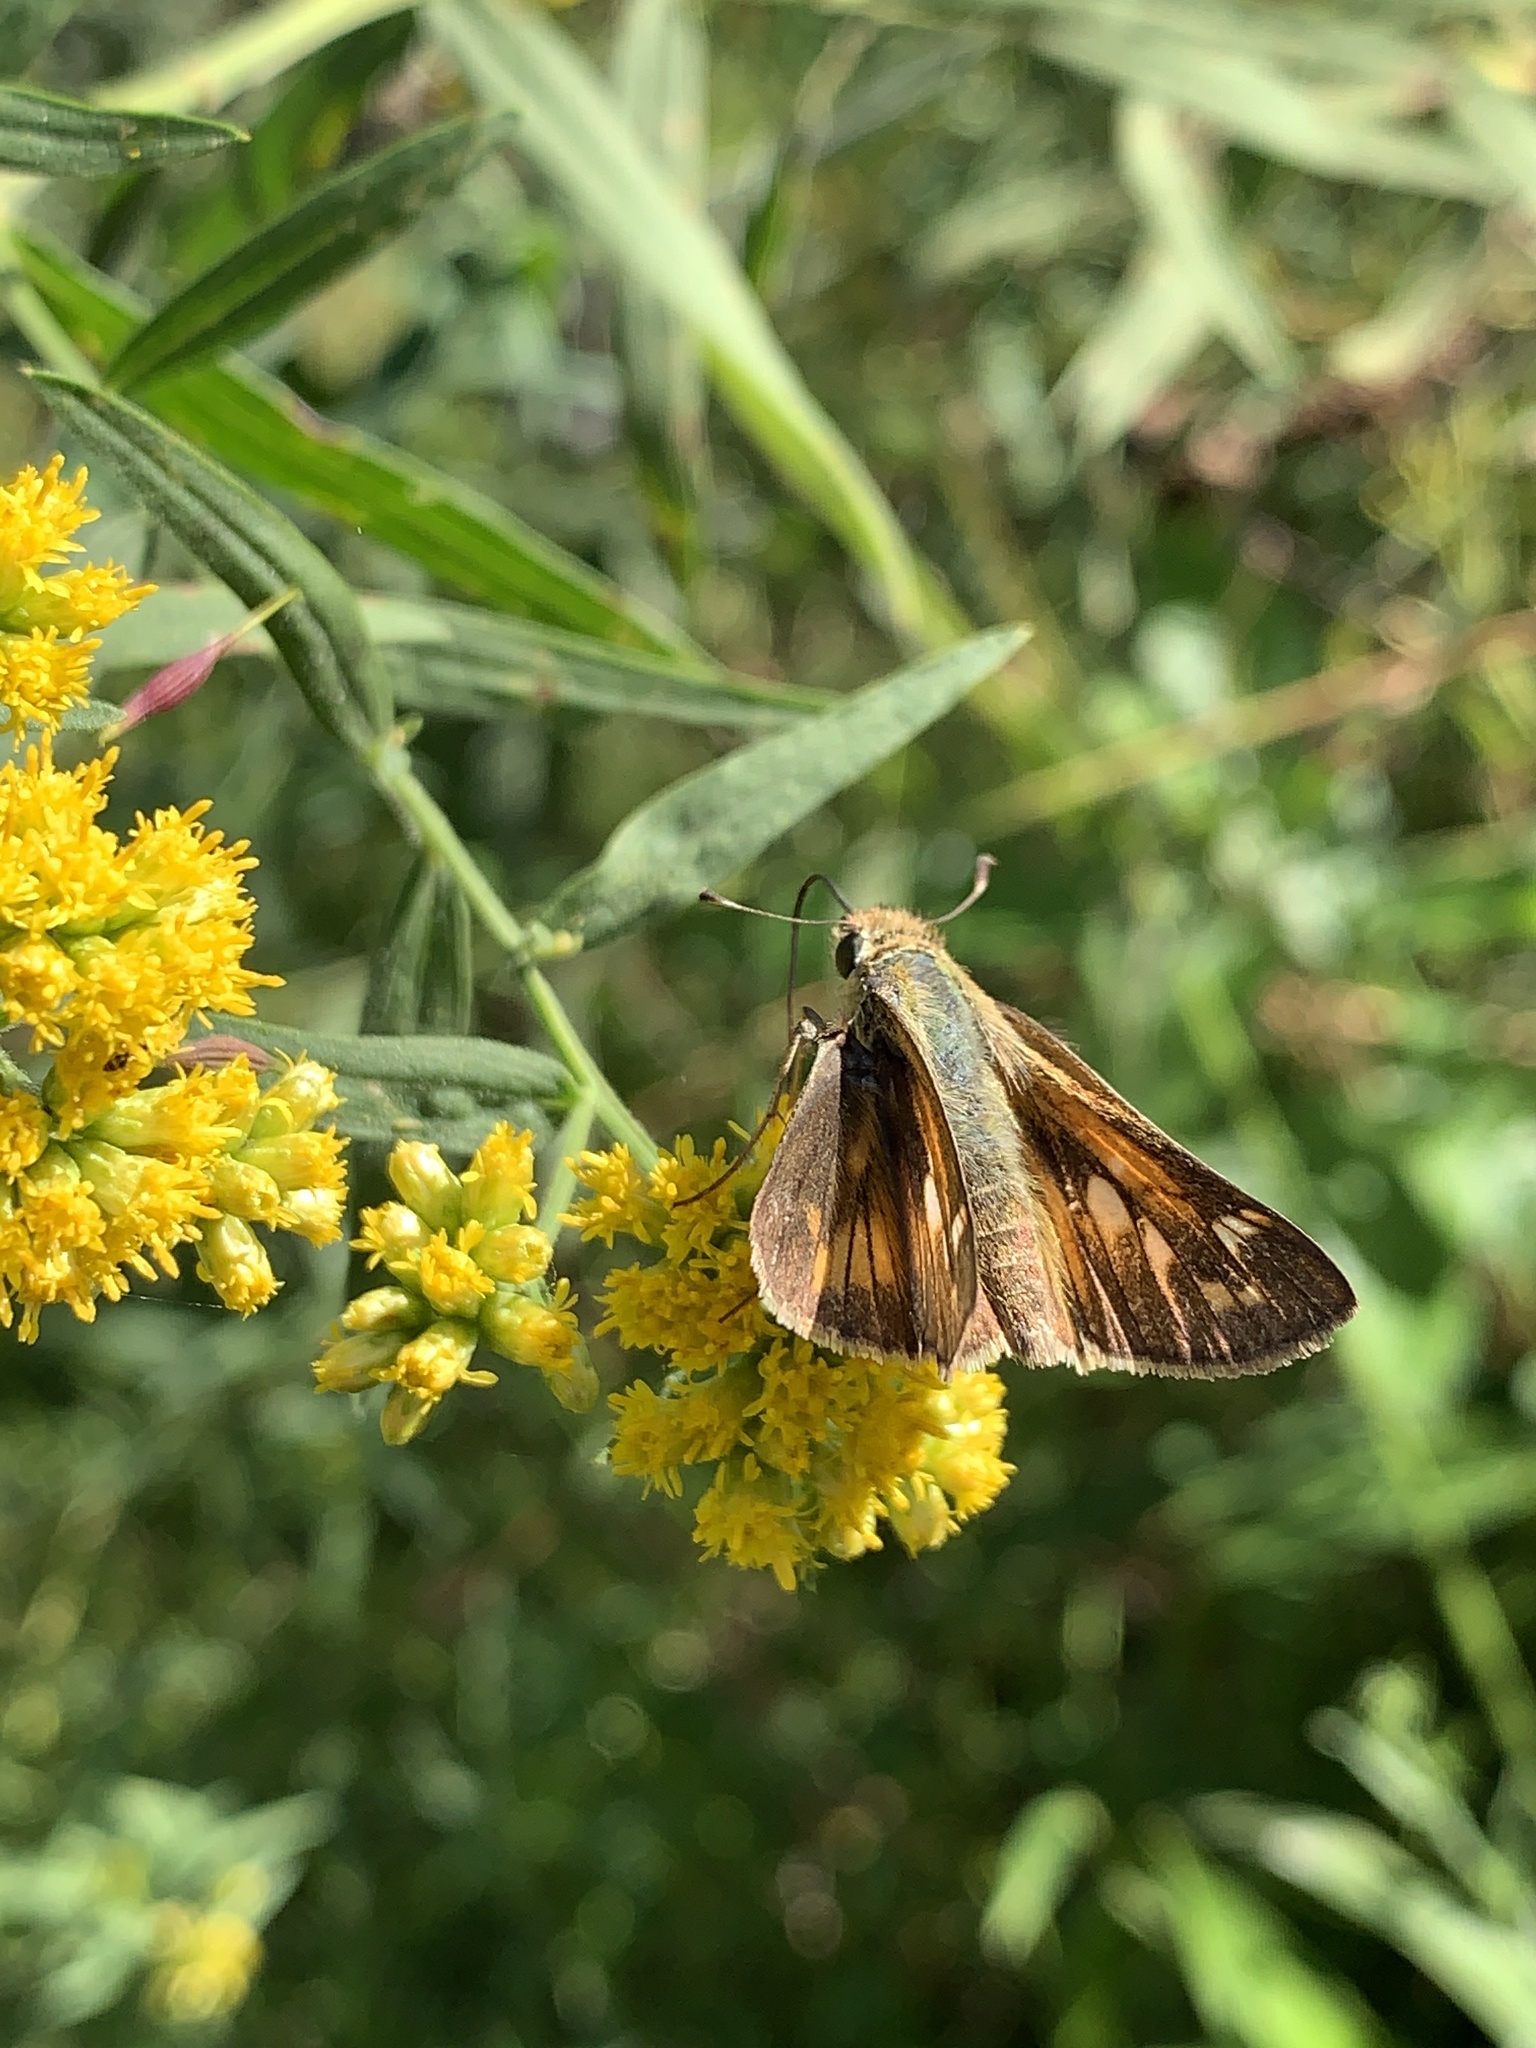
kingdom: Animalia
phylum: Arthropoda
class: Insecta
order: Lepidoptera
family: Hesperiidae
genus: Atalopedes
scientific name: Atalopedes
